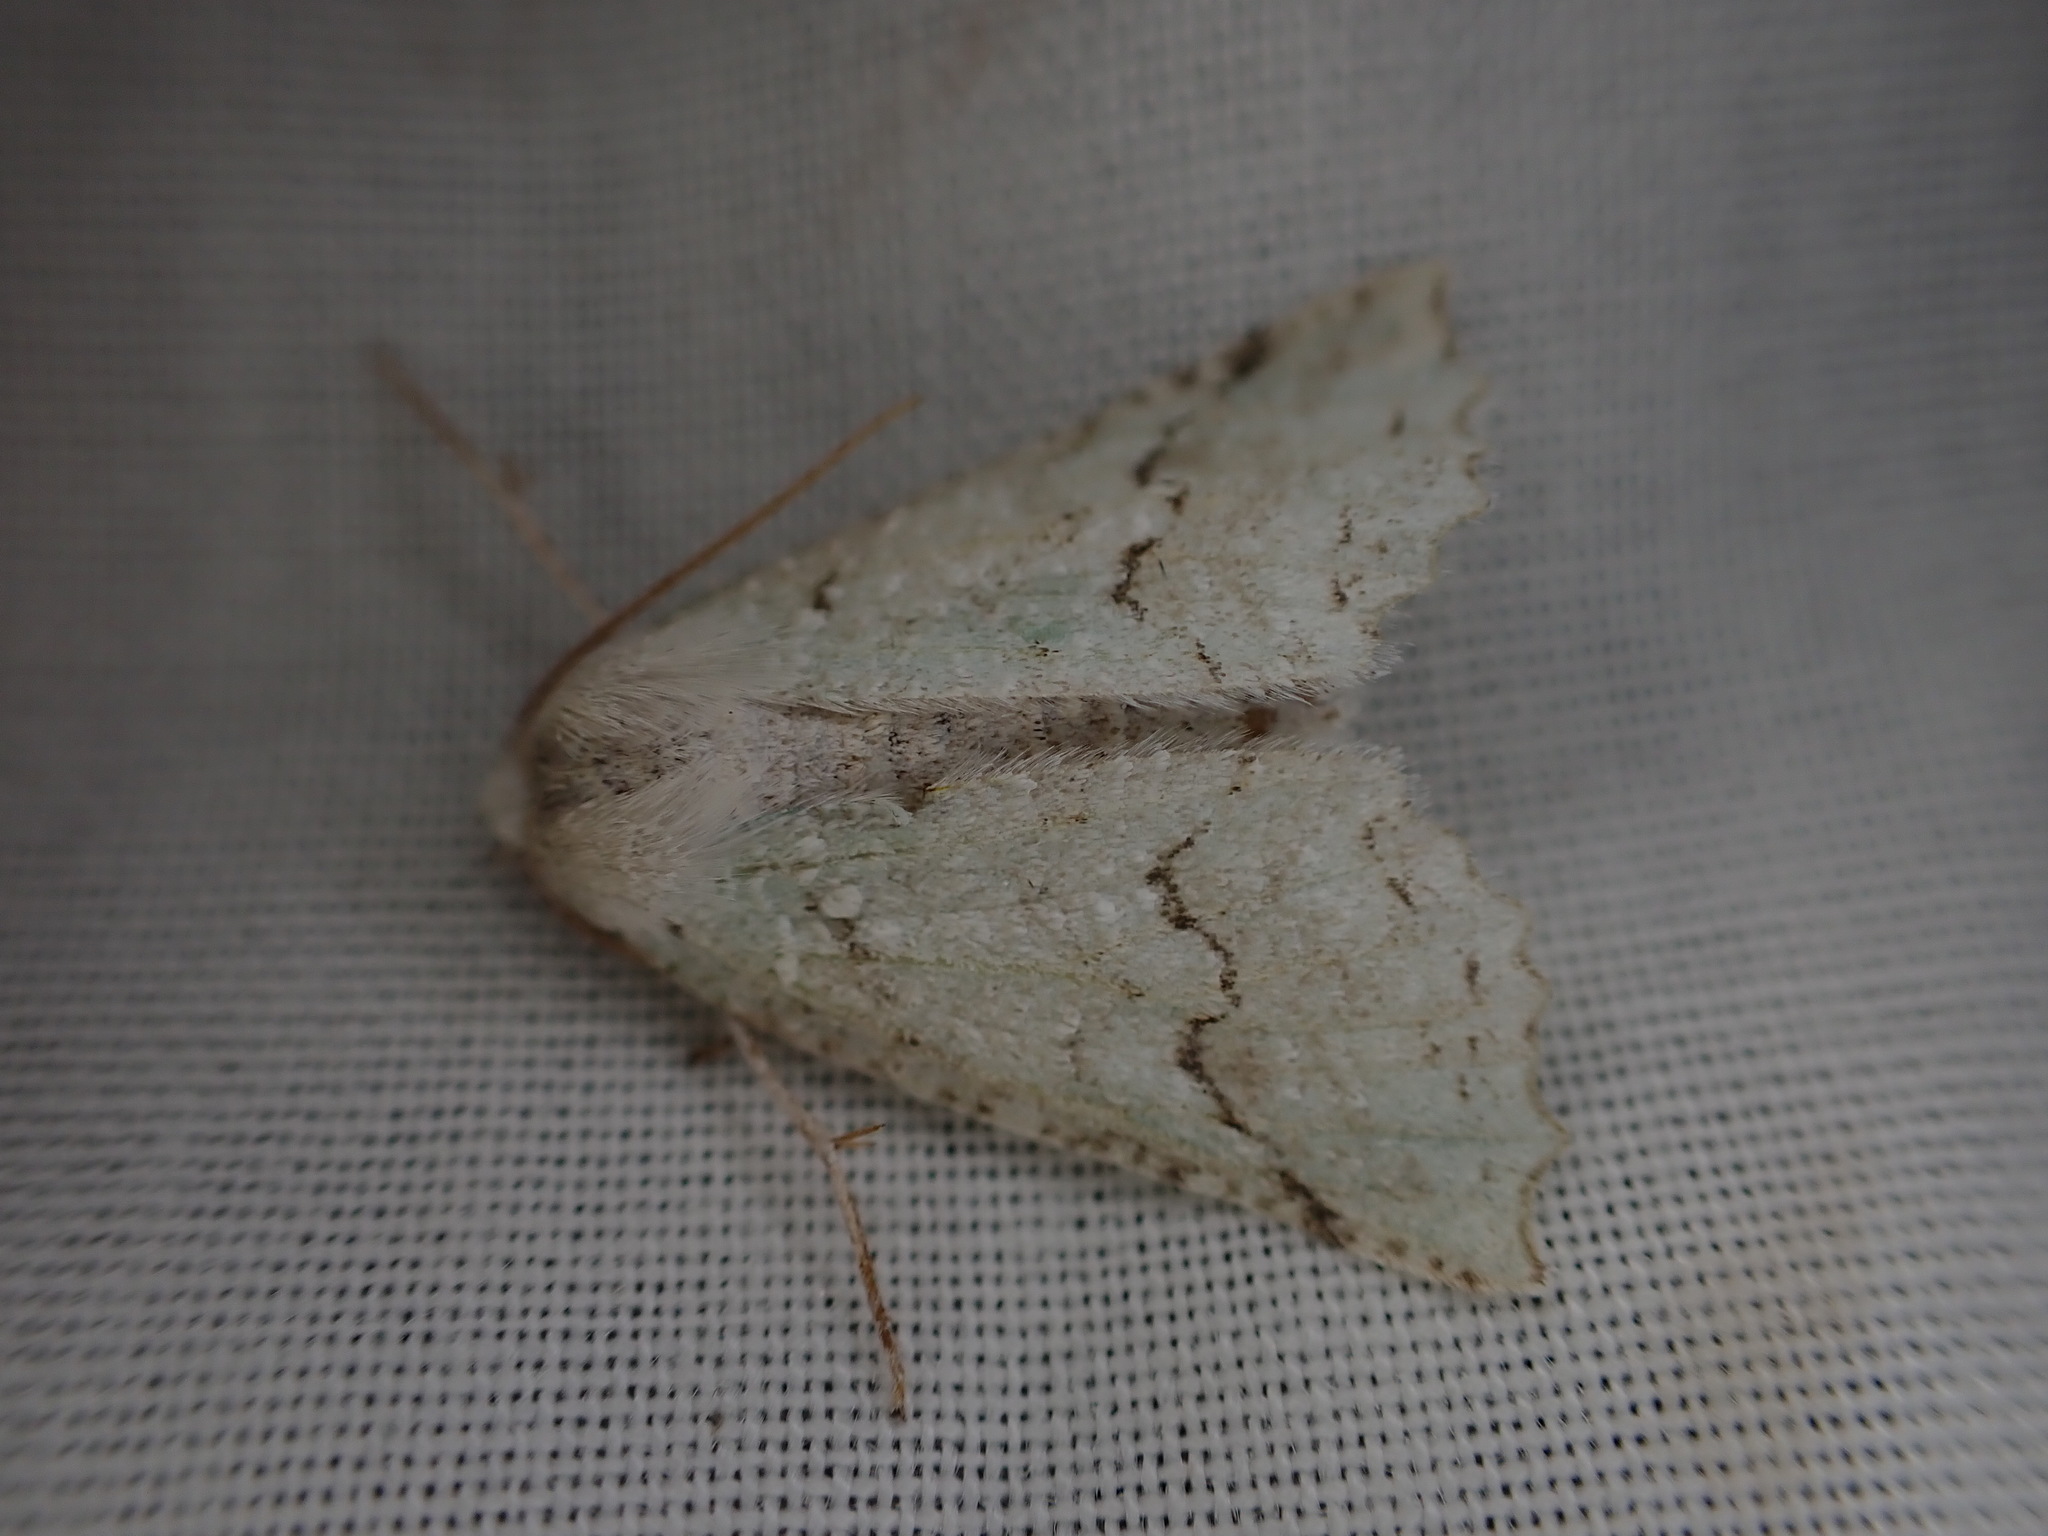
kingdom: Animalia
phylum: Arthropoda
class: Insecta
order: Lepidoptera
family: Geometridae
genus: Declana
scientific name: Declana niveata
